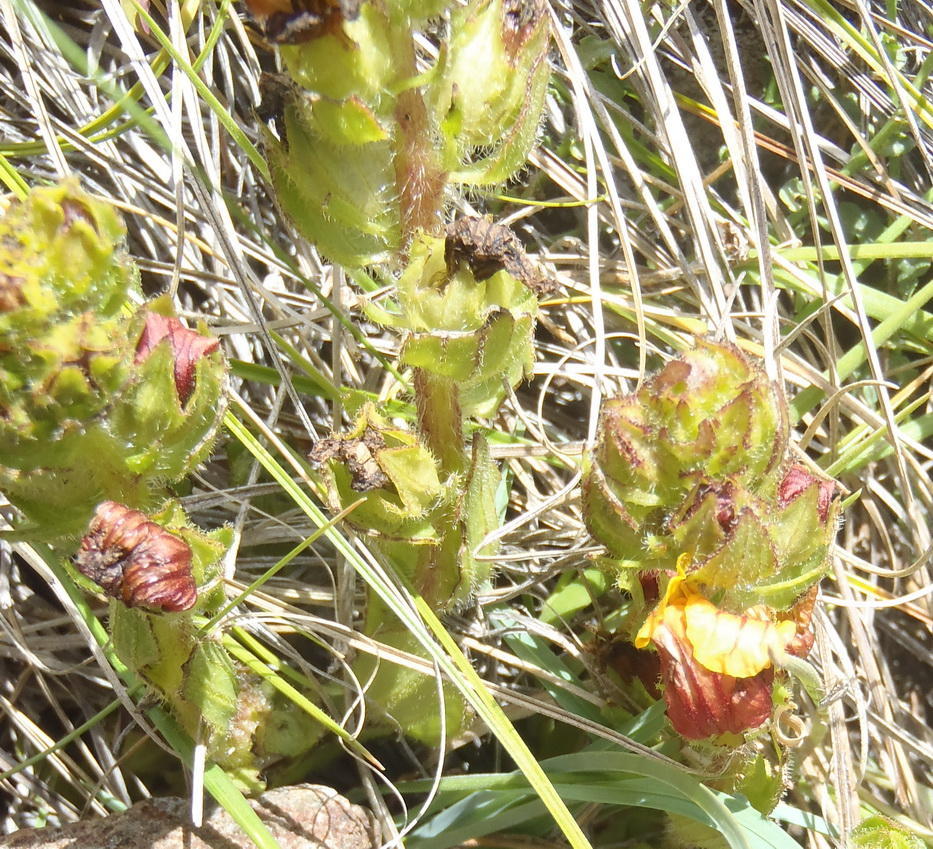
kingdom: Plantae
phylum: Tracheophyta
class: Magnoliopsida
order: Lamiales
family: Orobanchaceae
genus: Alectra
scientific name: Alectra basutica
